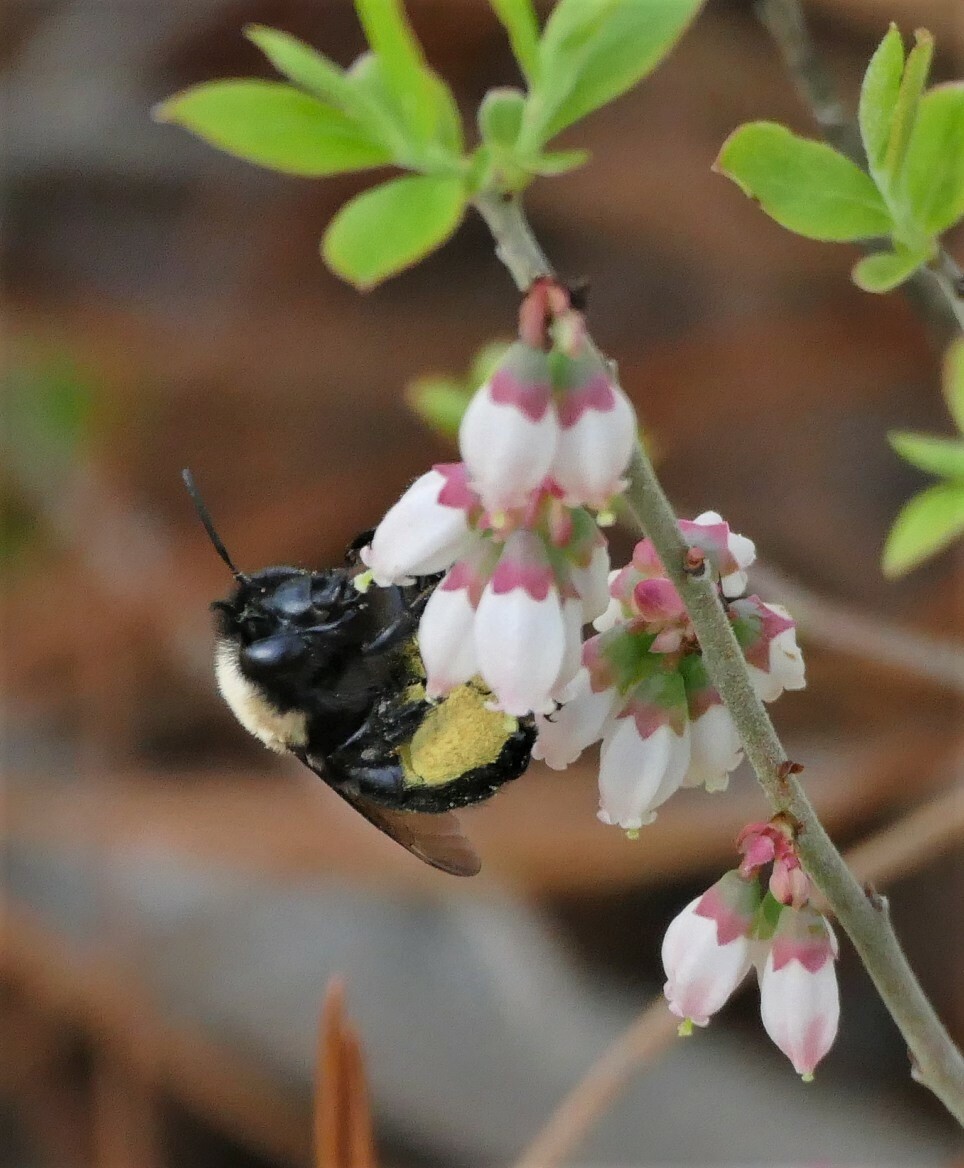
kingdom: Animalia
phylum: Arthropoda
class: Insecta
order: Hymenoptera
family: Apidae
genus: Habropoda
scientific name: Habropoda laboriosa
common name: Southeastern blueberry bee
